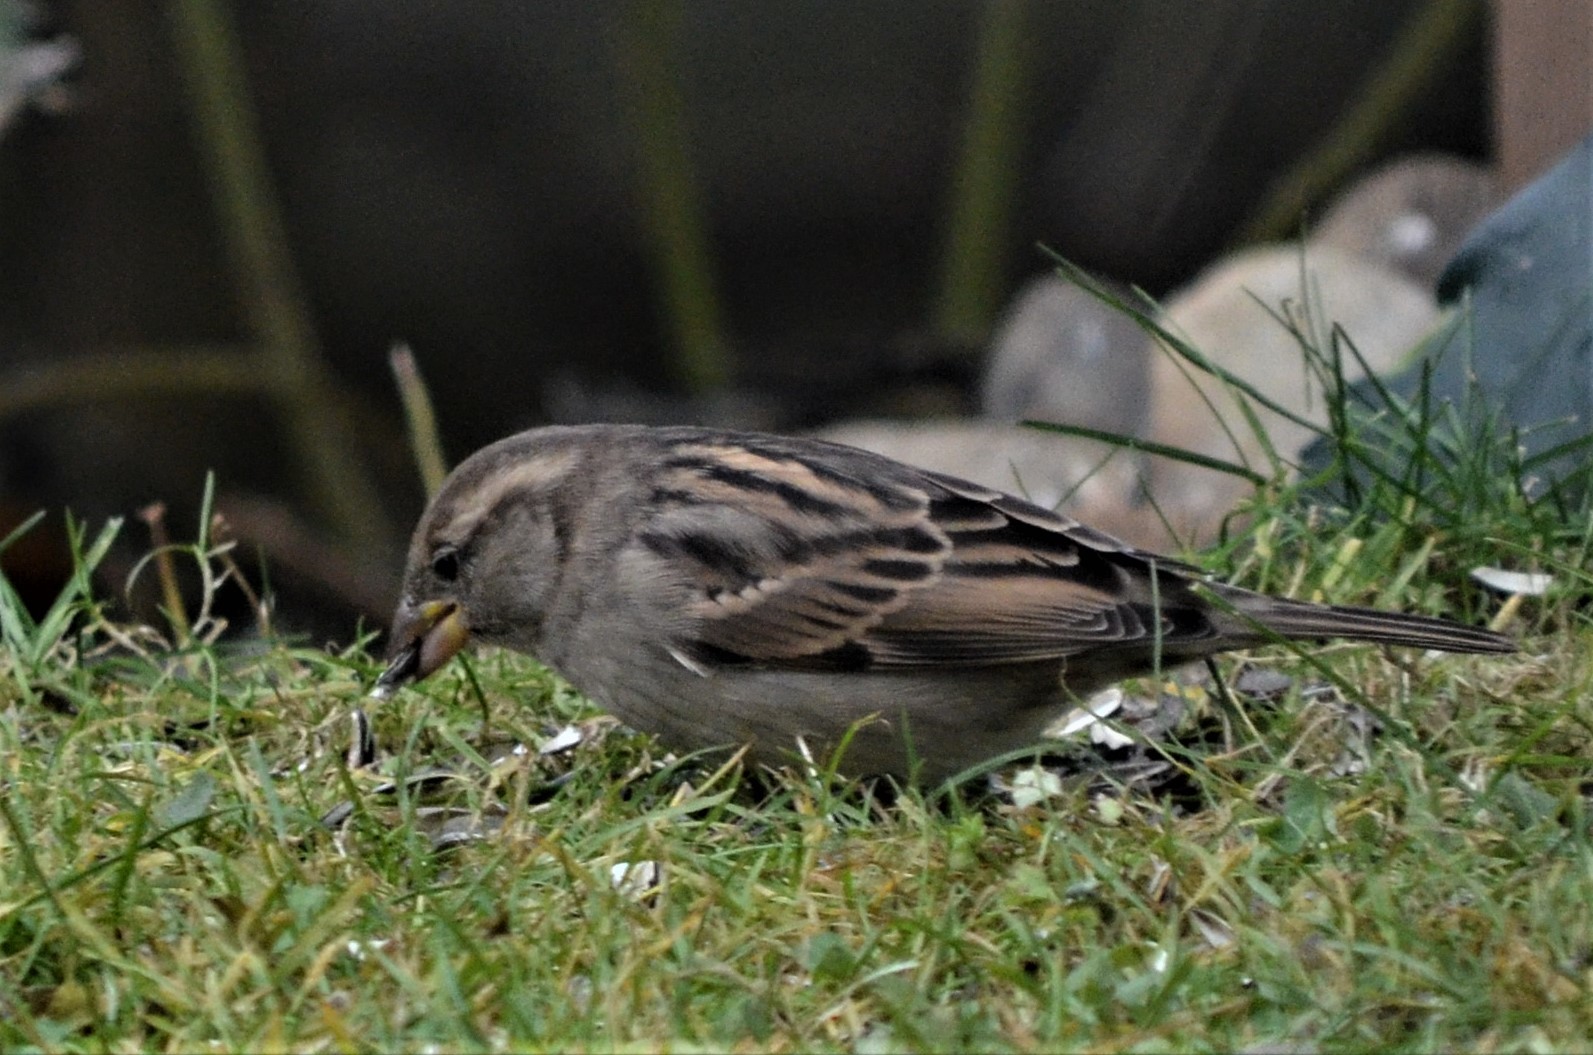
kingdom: Animalia
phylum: Chordata
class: Aves
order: Passeriformes
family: Passeridae
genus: Passer
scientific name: Passer domesticus
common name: House sparrow
